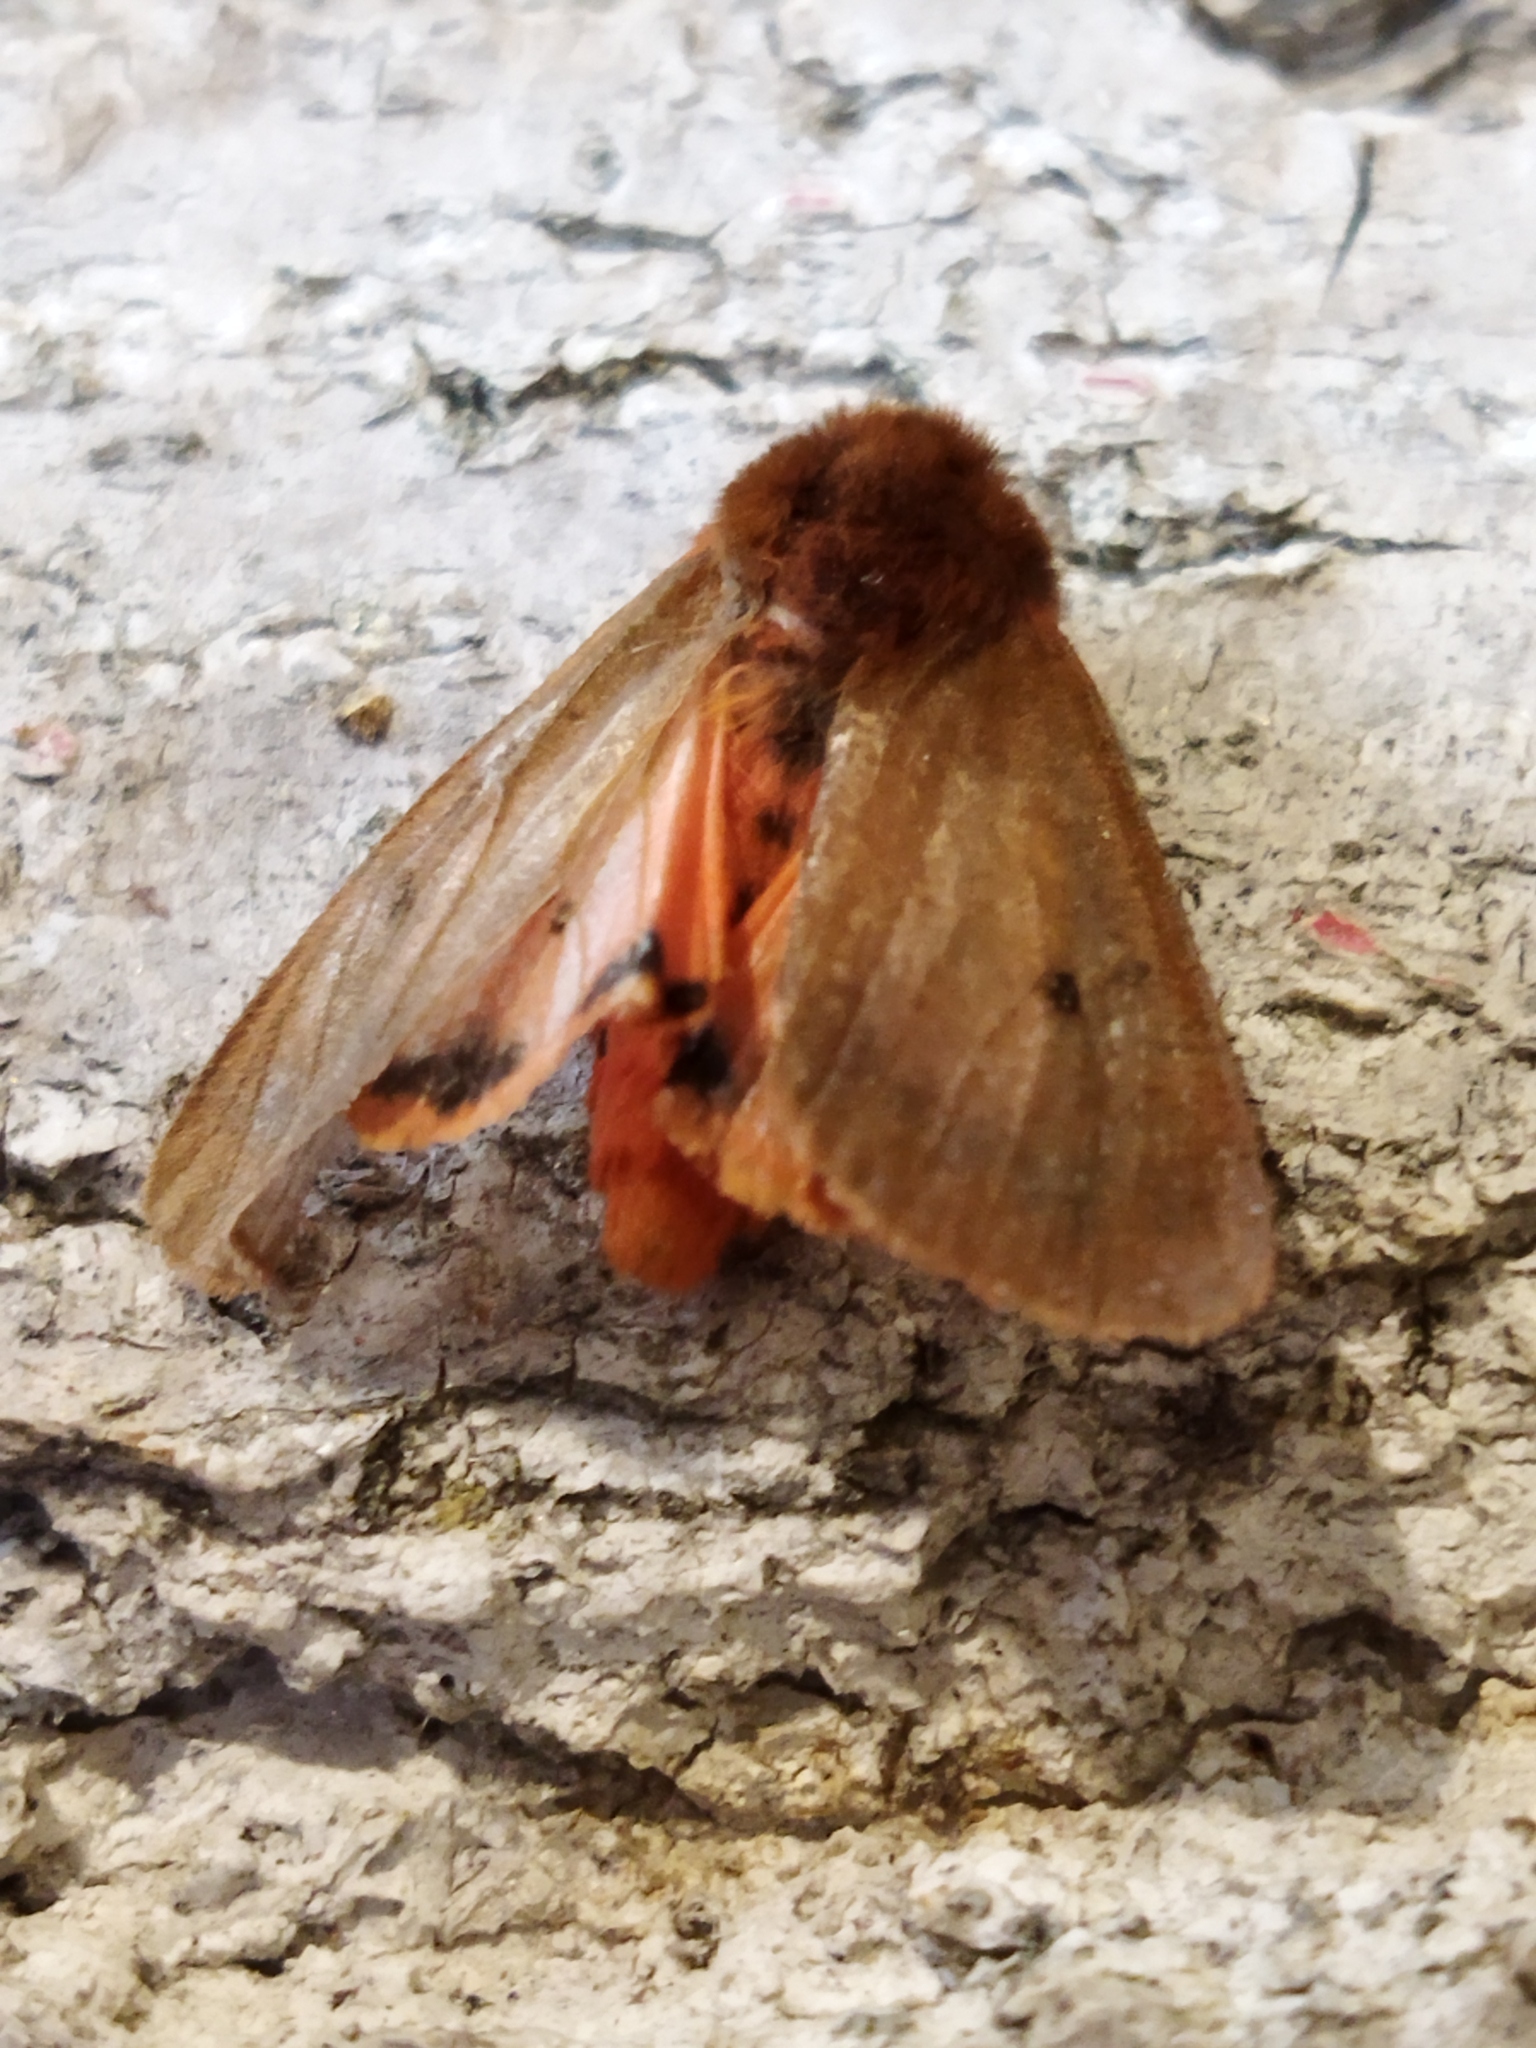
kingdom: Animalia
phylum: Arthropoda
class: Insecta
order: Lepidoptera
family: Erebidae
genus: Phragmatobia
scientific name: Phragmatobia fuliginosa
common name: Ruby tiger
